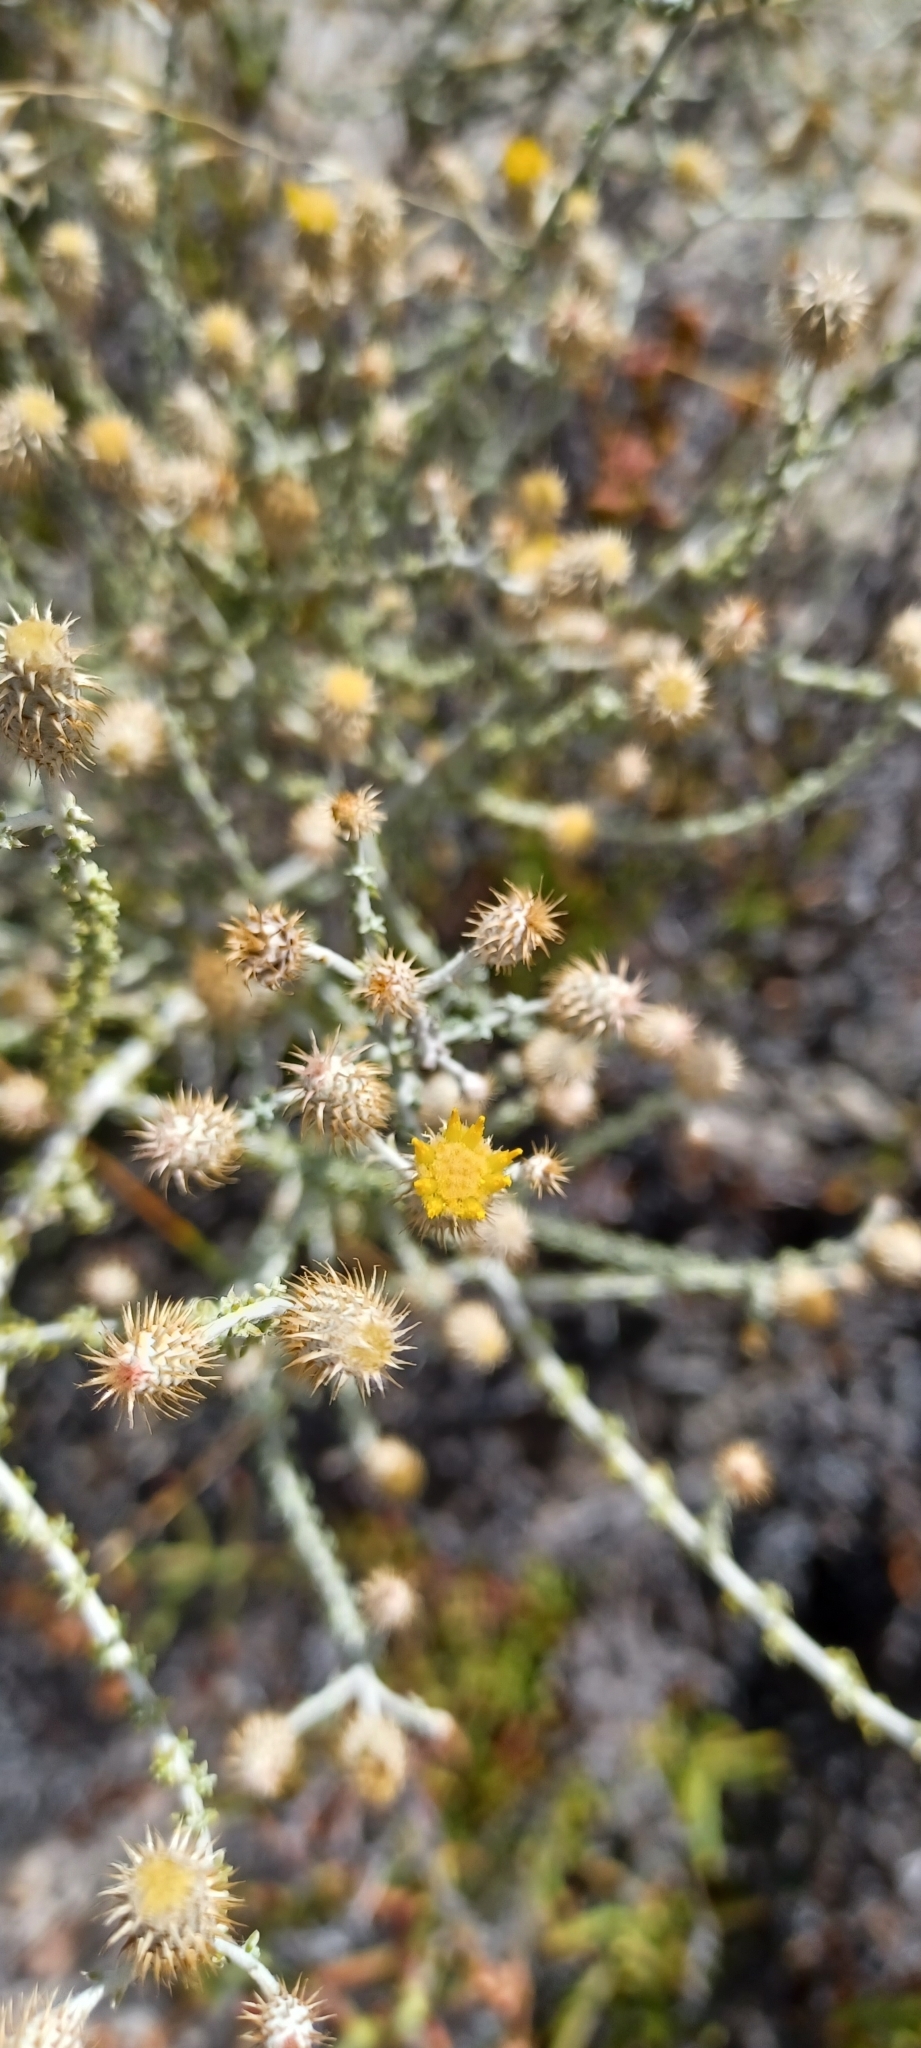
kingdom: Plantae
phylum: Tracheophyta
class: Magnoliopsida
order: Asterales
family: Asteraceae
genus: Lachnospermum
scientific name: Lachnospermum neglectum
